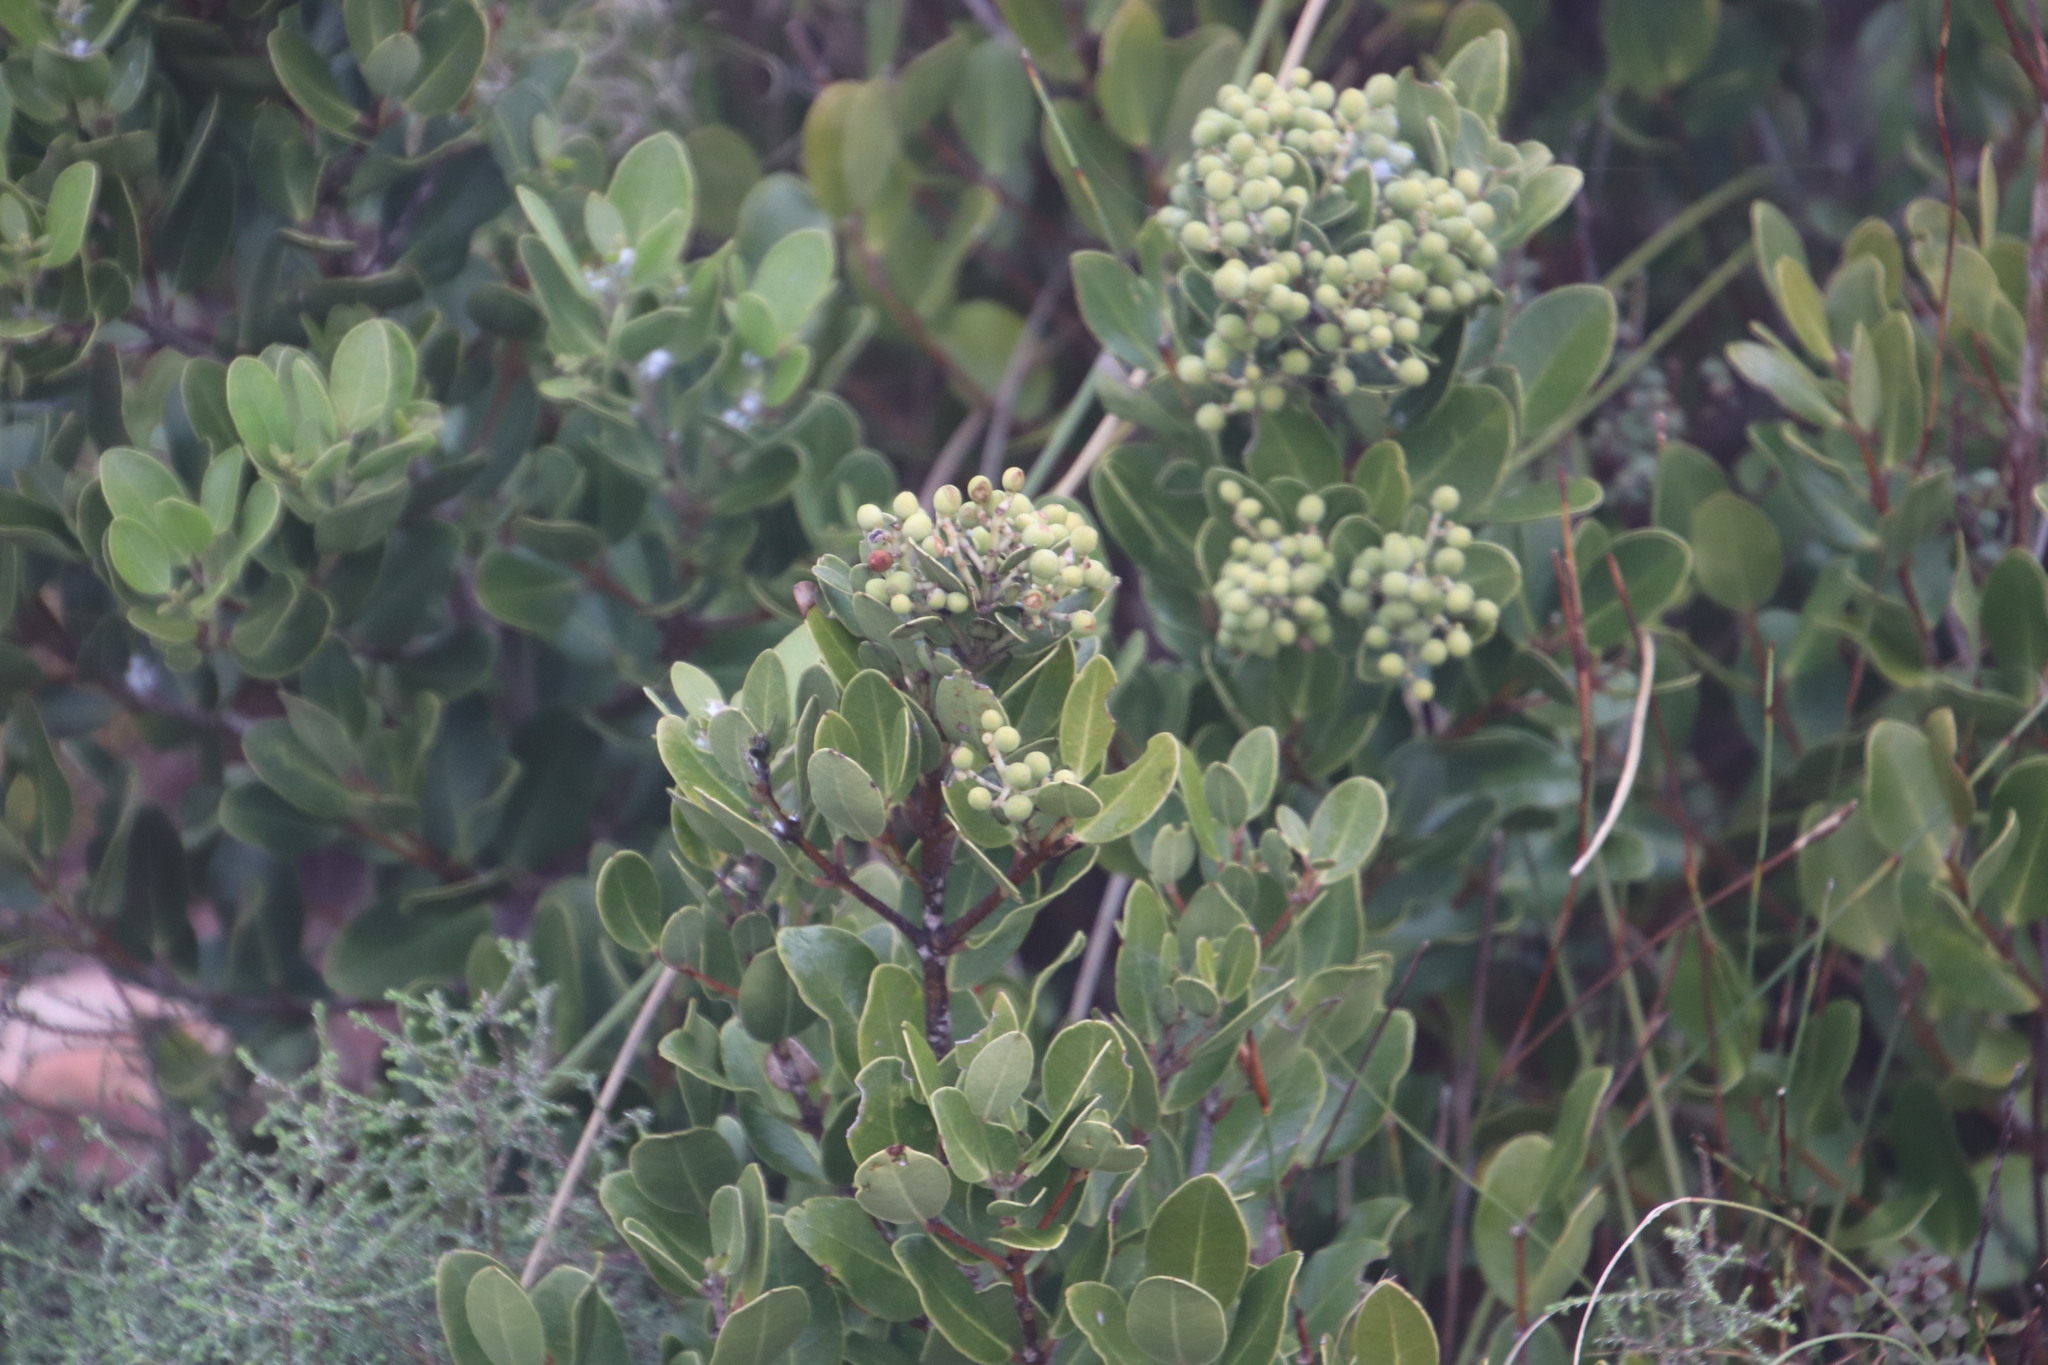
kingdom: Plantae
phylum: Tracheophyta
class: Magnoliopsida
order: Lamiales
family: Oleaceae
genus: Olea
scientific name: Olea capensis
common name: Black ironwood
